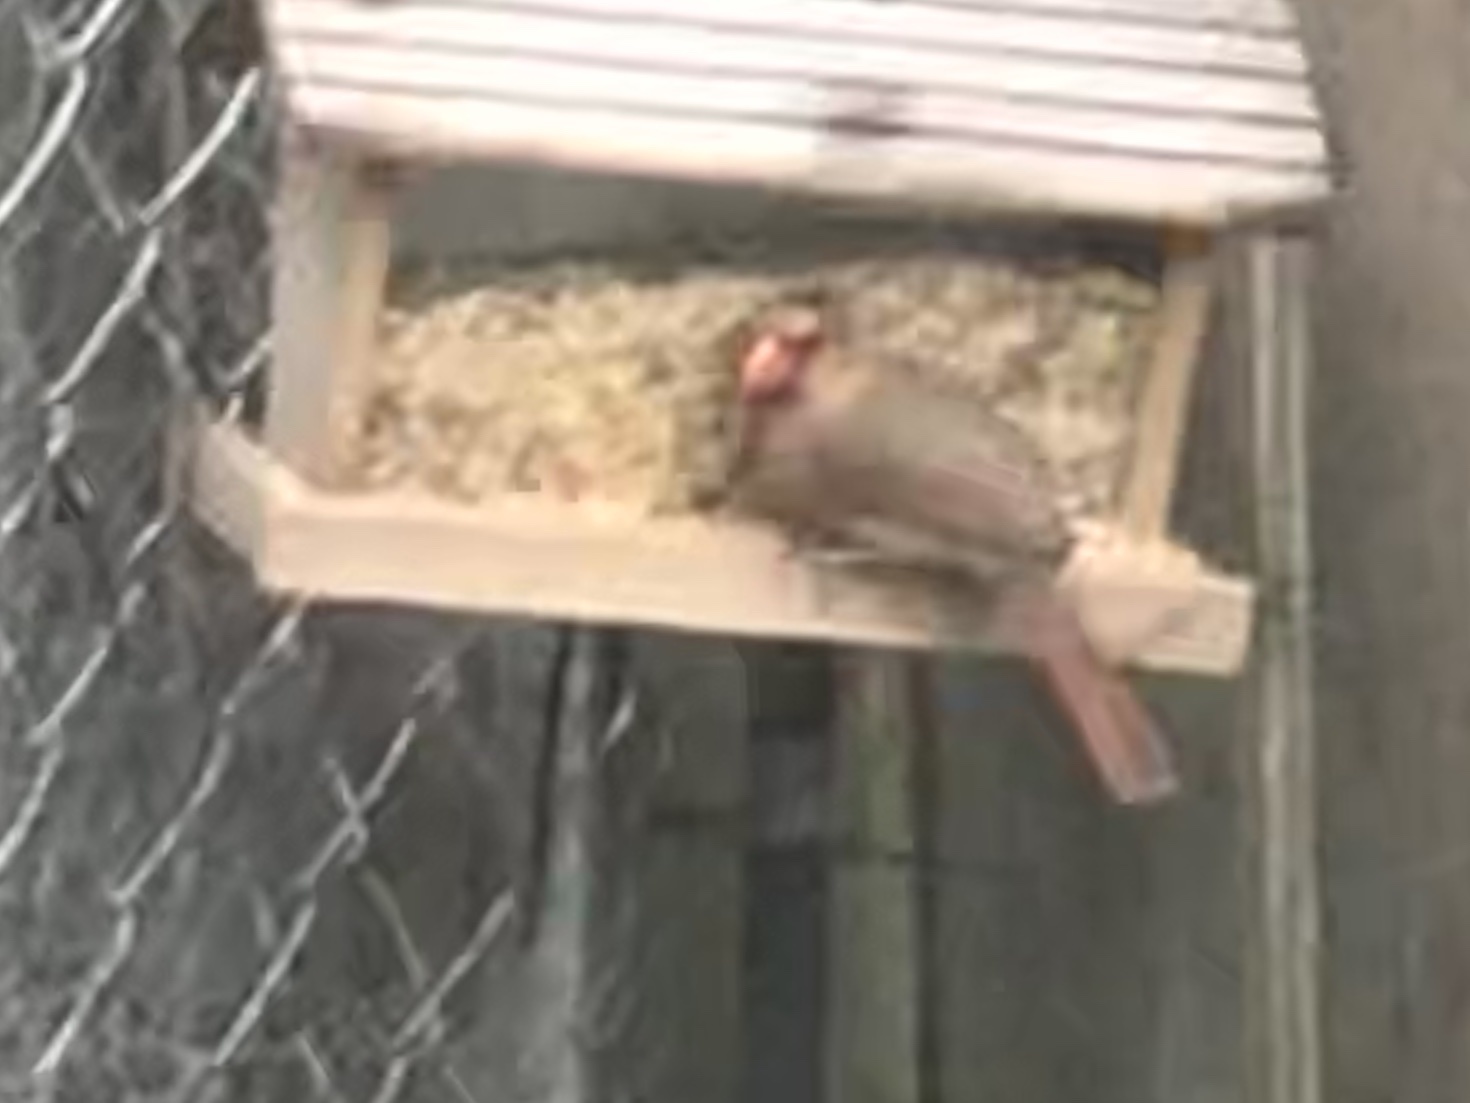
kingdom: Animalia
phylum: Chordata
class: Aves
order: Passeriformes
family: Cardinalidae
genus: Cardinalis
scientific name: Cardinalis cardinalis
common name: Northern cardinal
